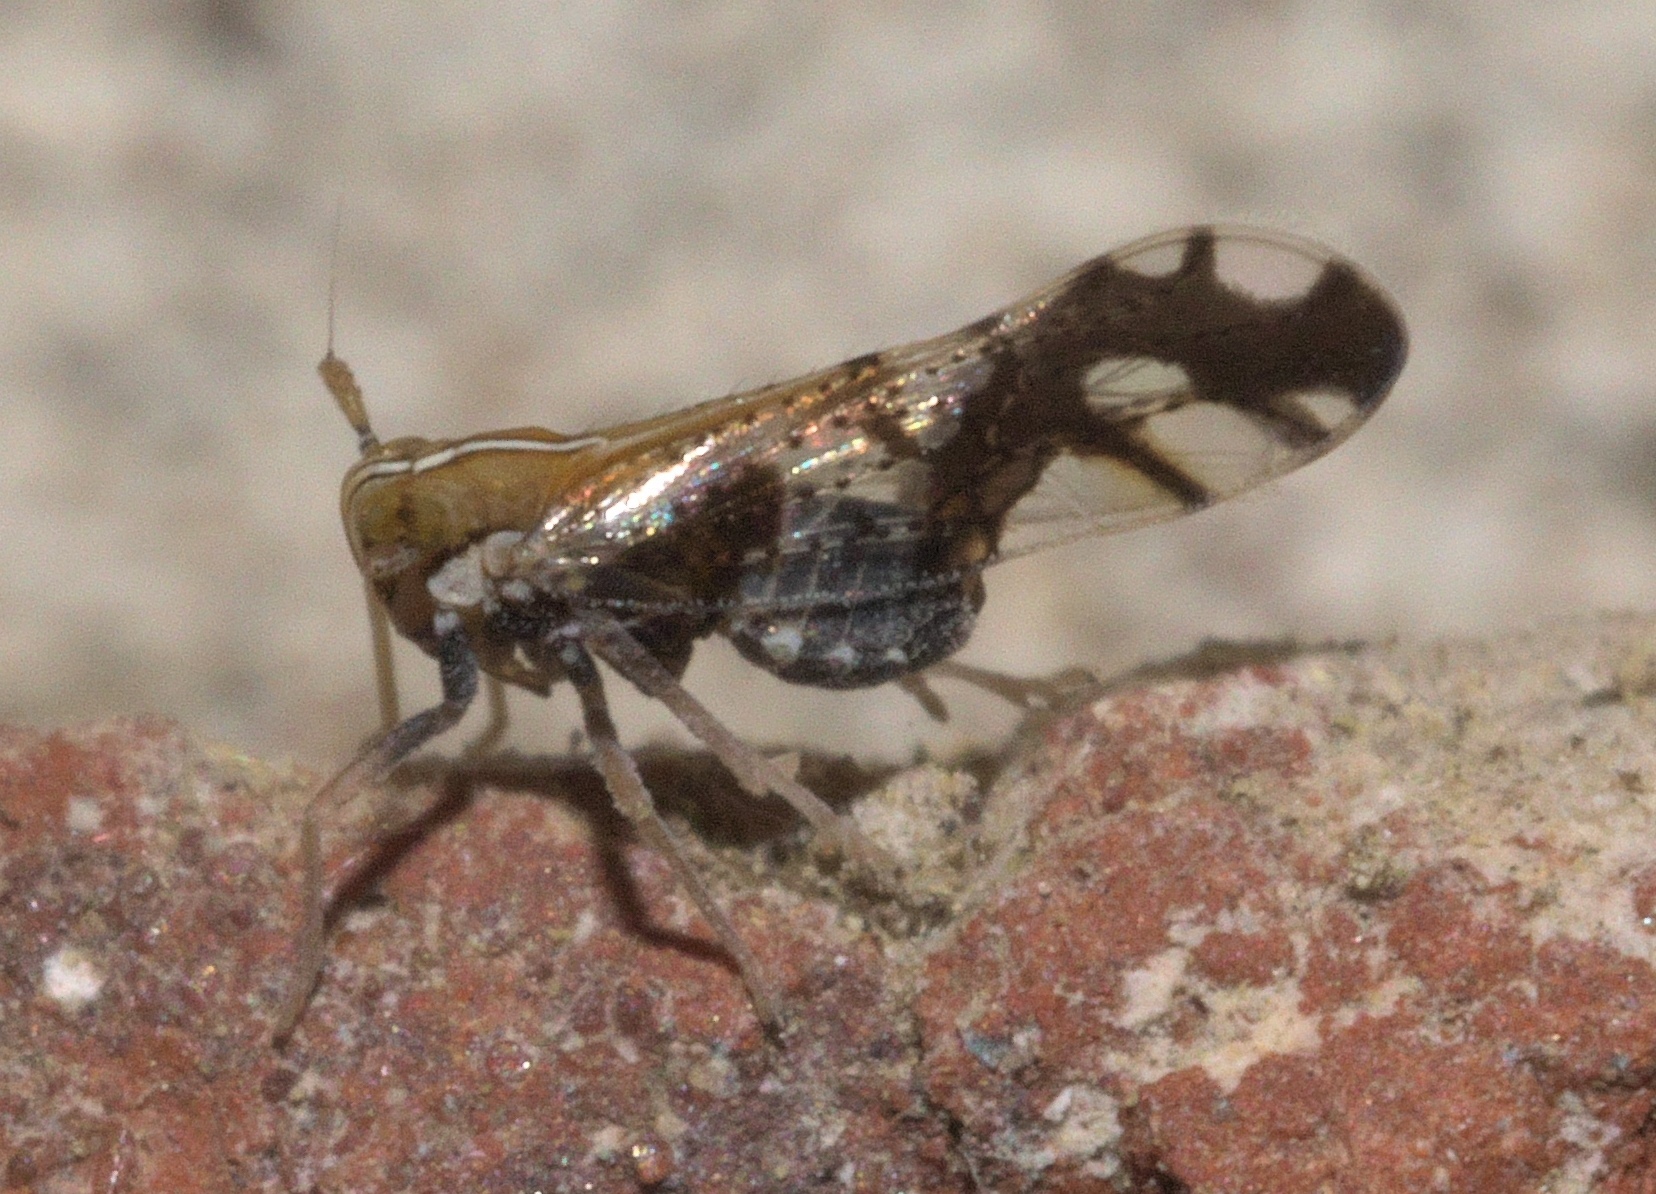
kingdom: Animalia
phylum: Arthropoda
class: Insecta
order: Hemiptera
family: Delphacidae
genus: Liburniella
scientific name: Liburniella ornata
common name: Ornate planthopper
